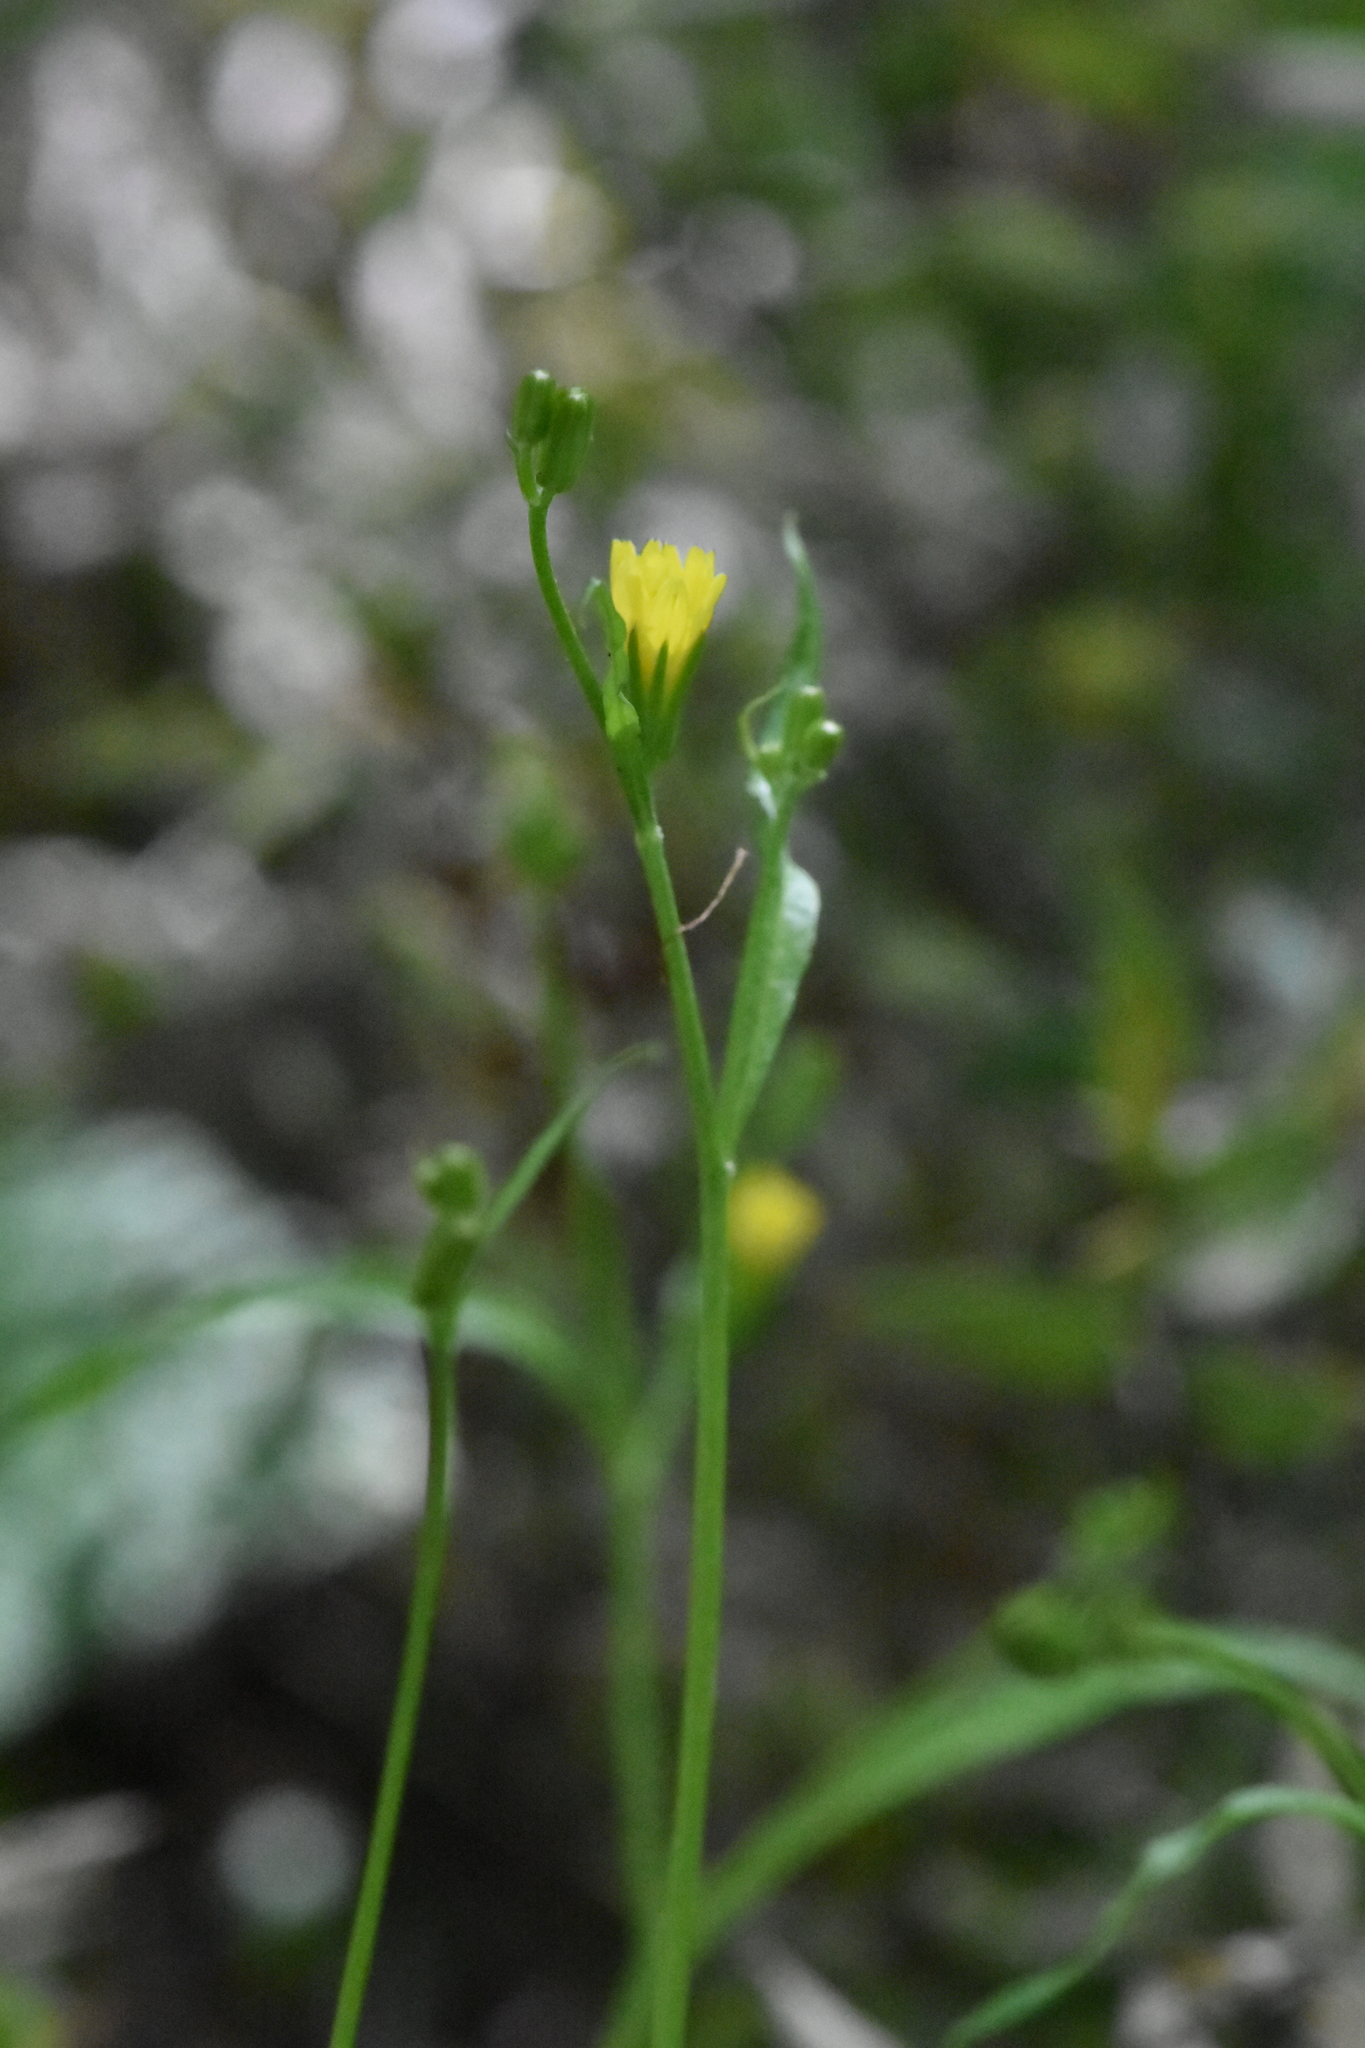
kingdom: Plantae
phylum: Tracheophyta
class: Magnoliopsida
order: Asterales
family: Asteraceae
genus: Lapsana
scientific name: Lapsana communis
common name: Nipplewort
